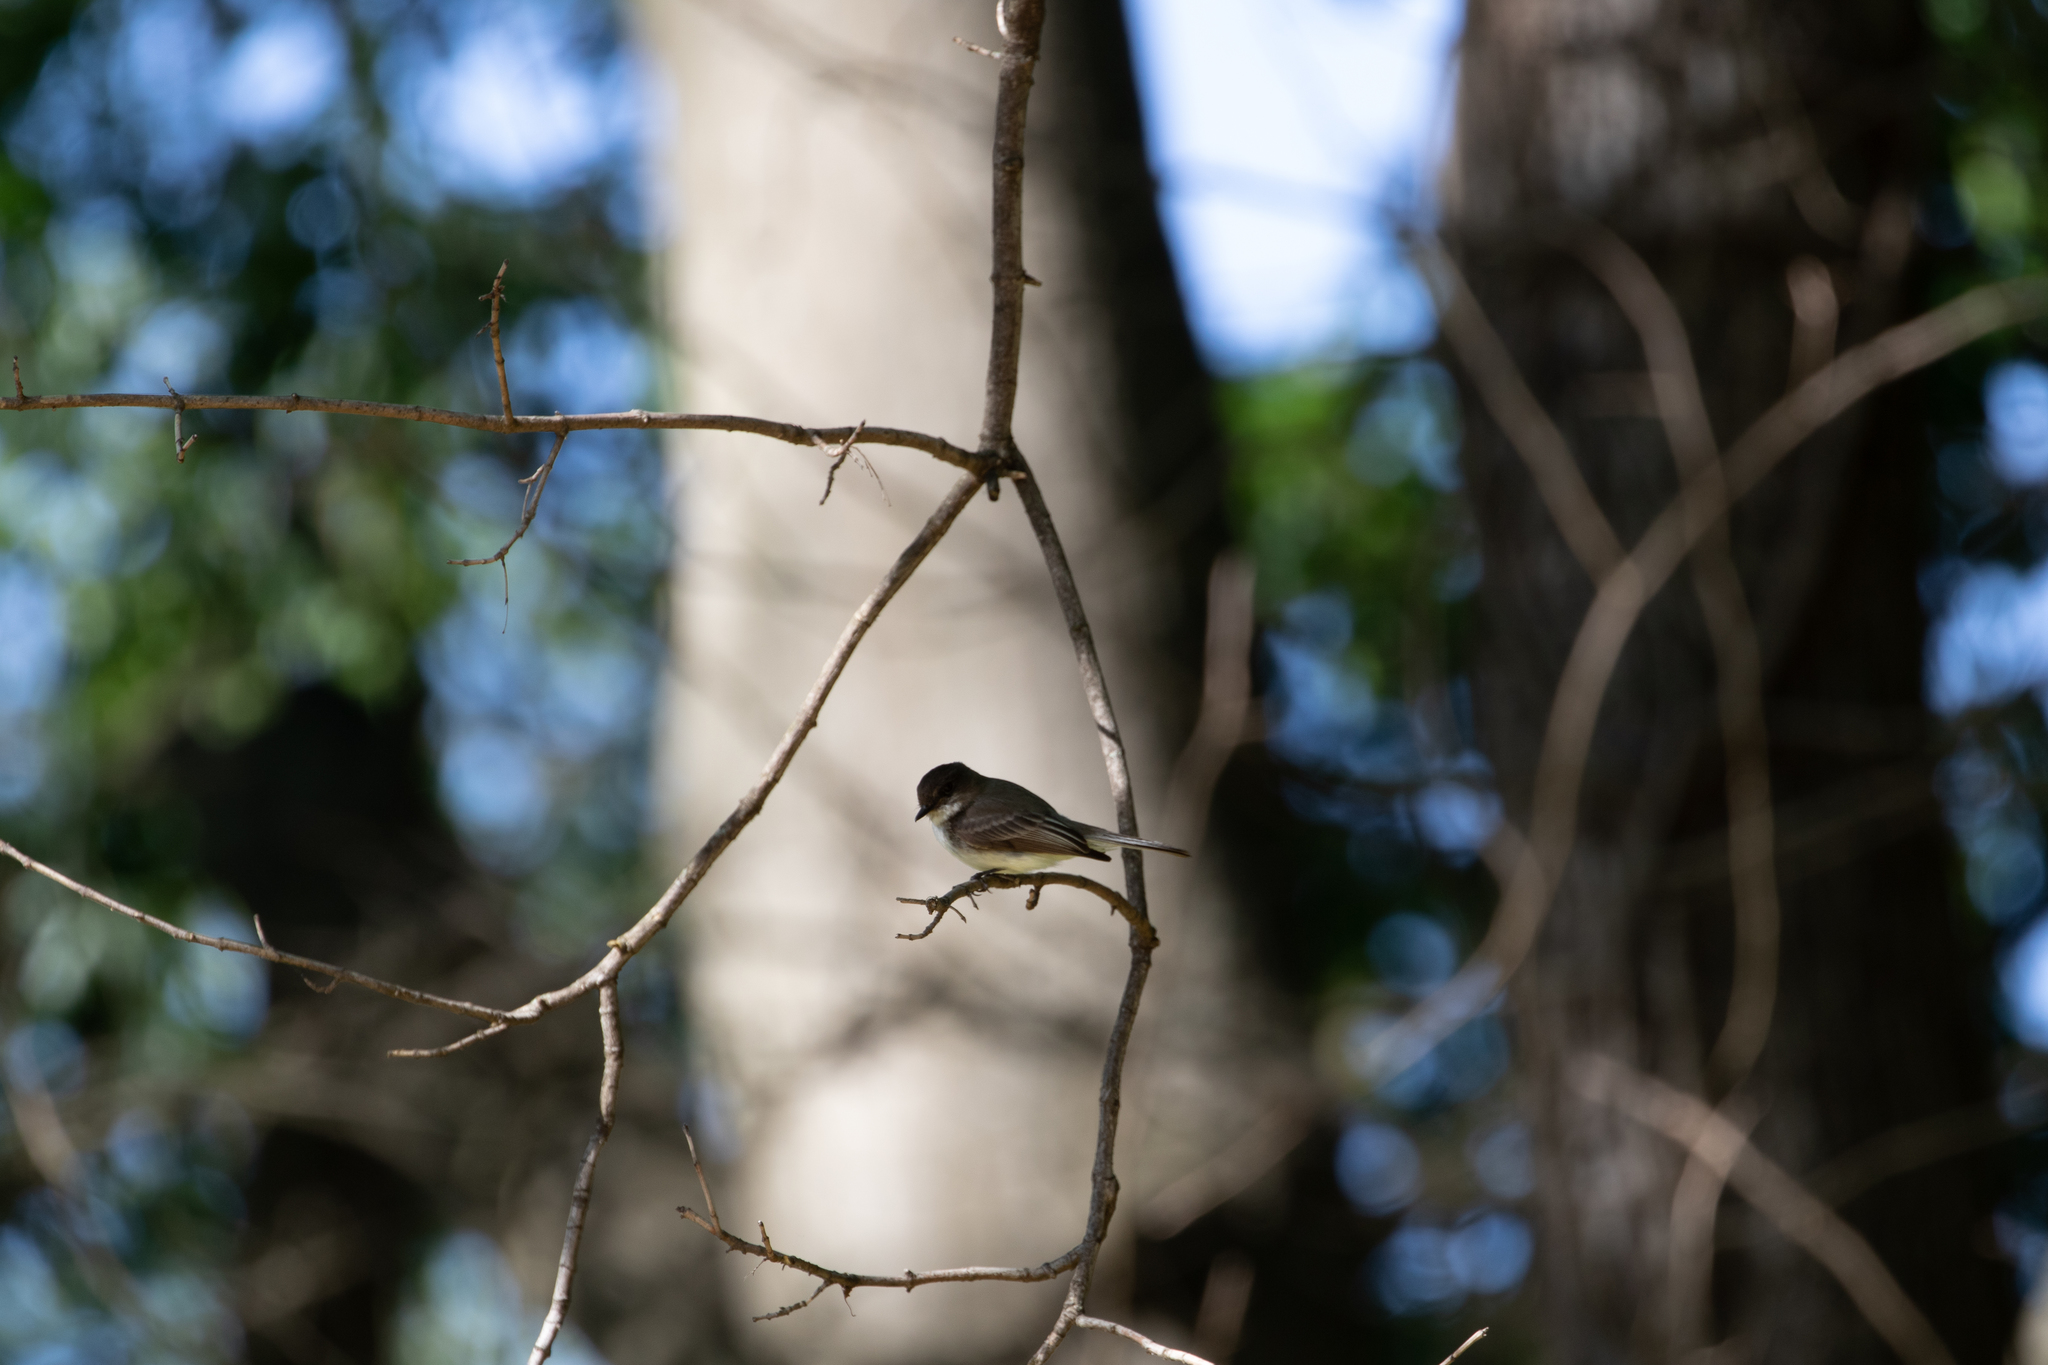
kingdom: Animalia
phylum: Chordata
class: Aves
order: Passeriformes
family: Tyrannidae
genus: Sayornis
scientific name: Sayornis phoebe
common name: Eastern phoebe
